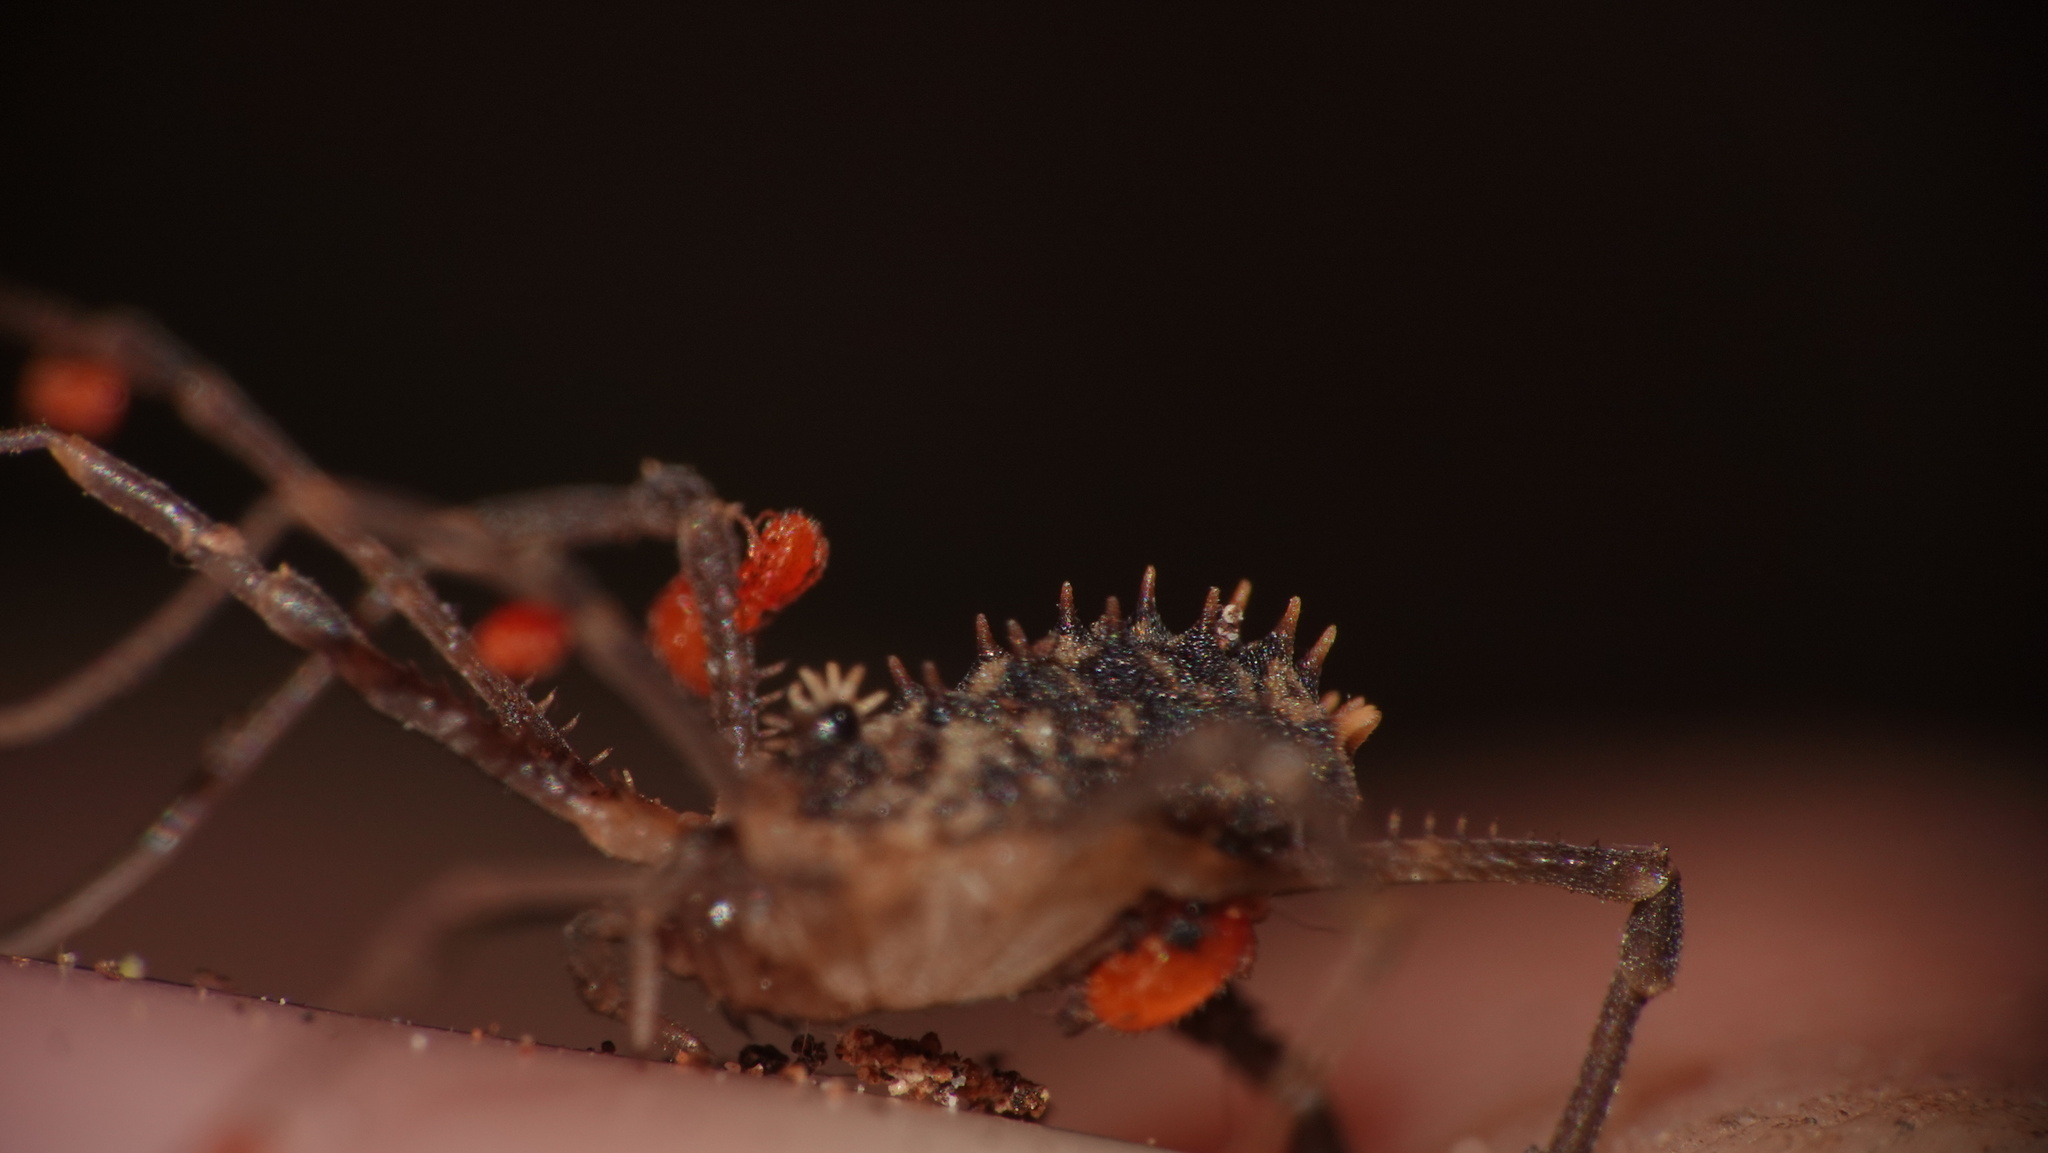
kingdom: Animalia
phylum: Arthropoda
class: Arachnida
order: Opiliones
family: Sclerosomatidae
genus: Astrobunus
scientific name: Astrobunus helleri
